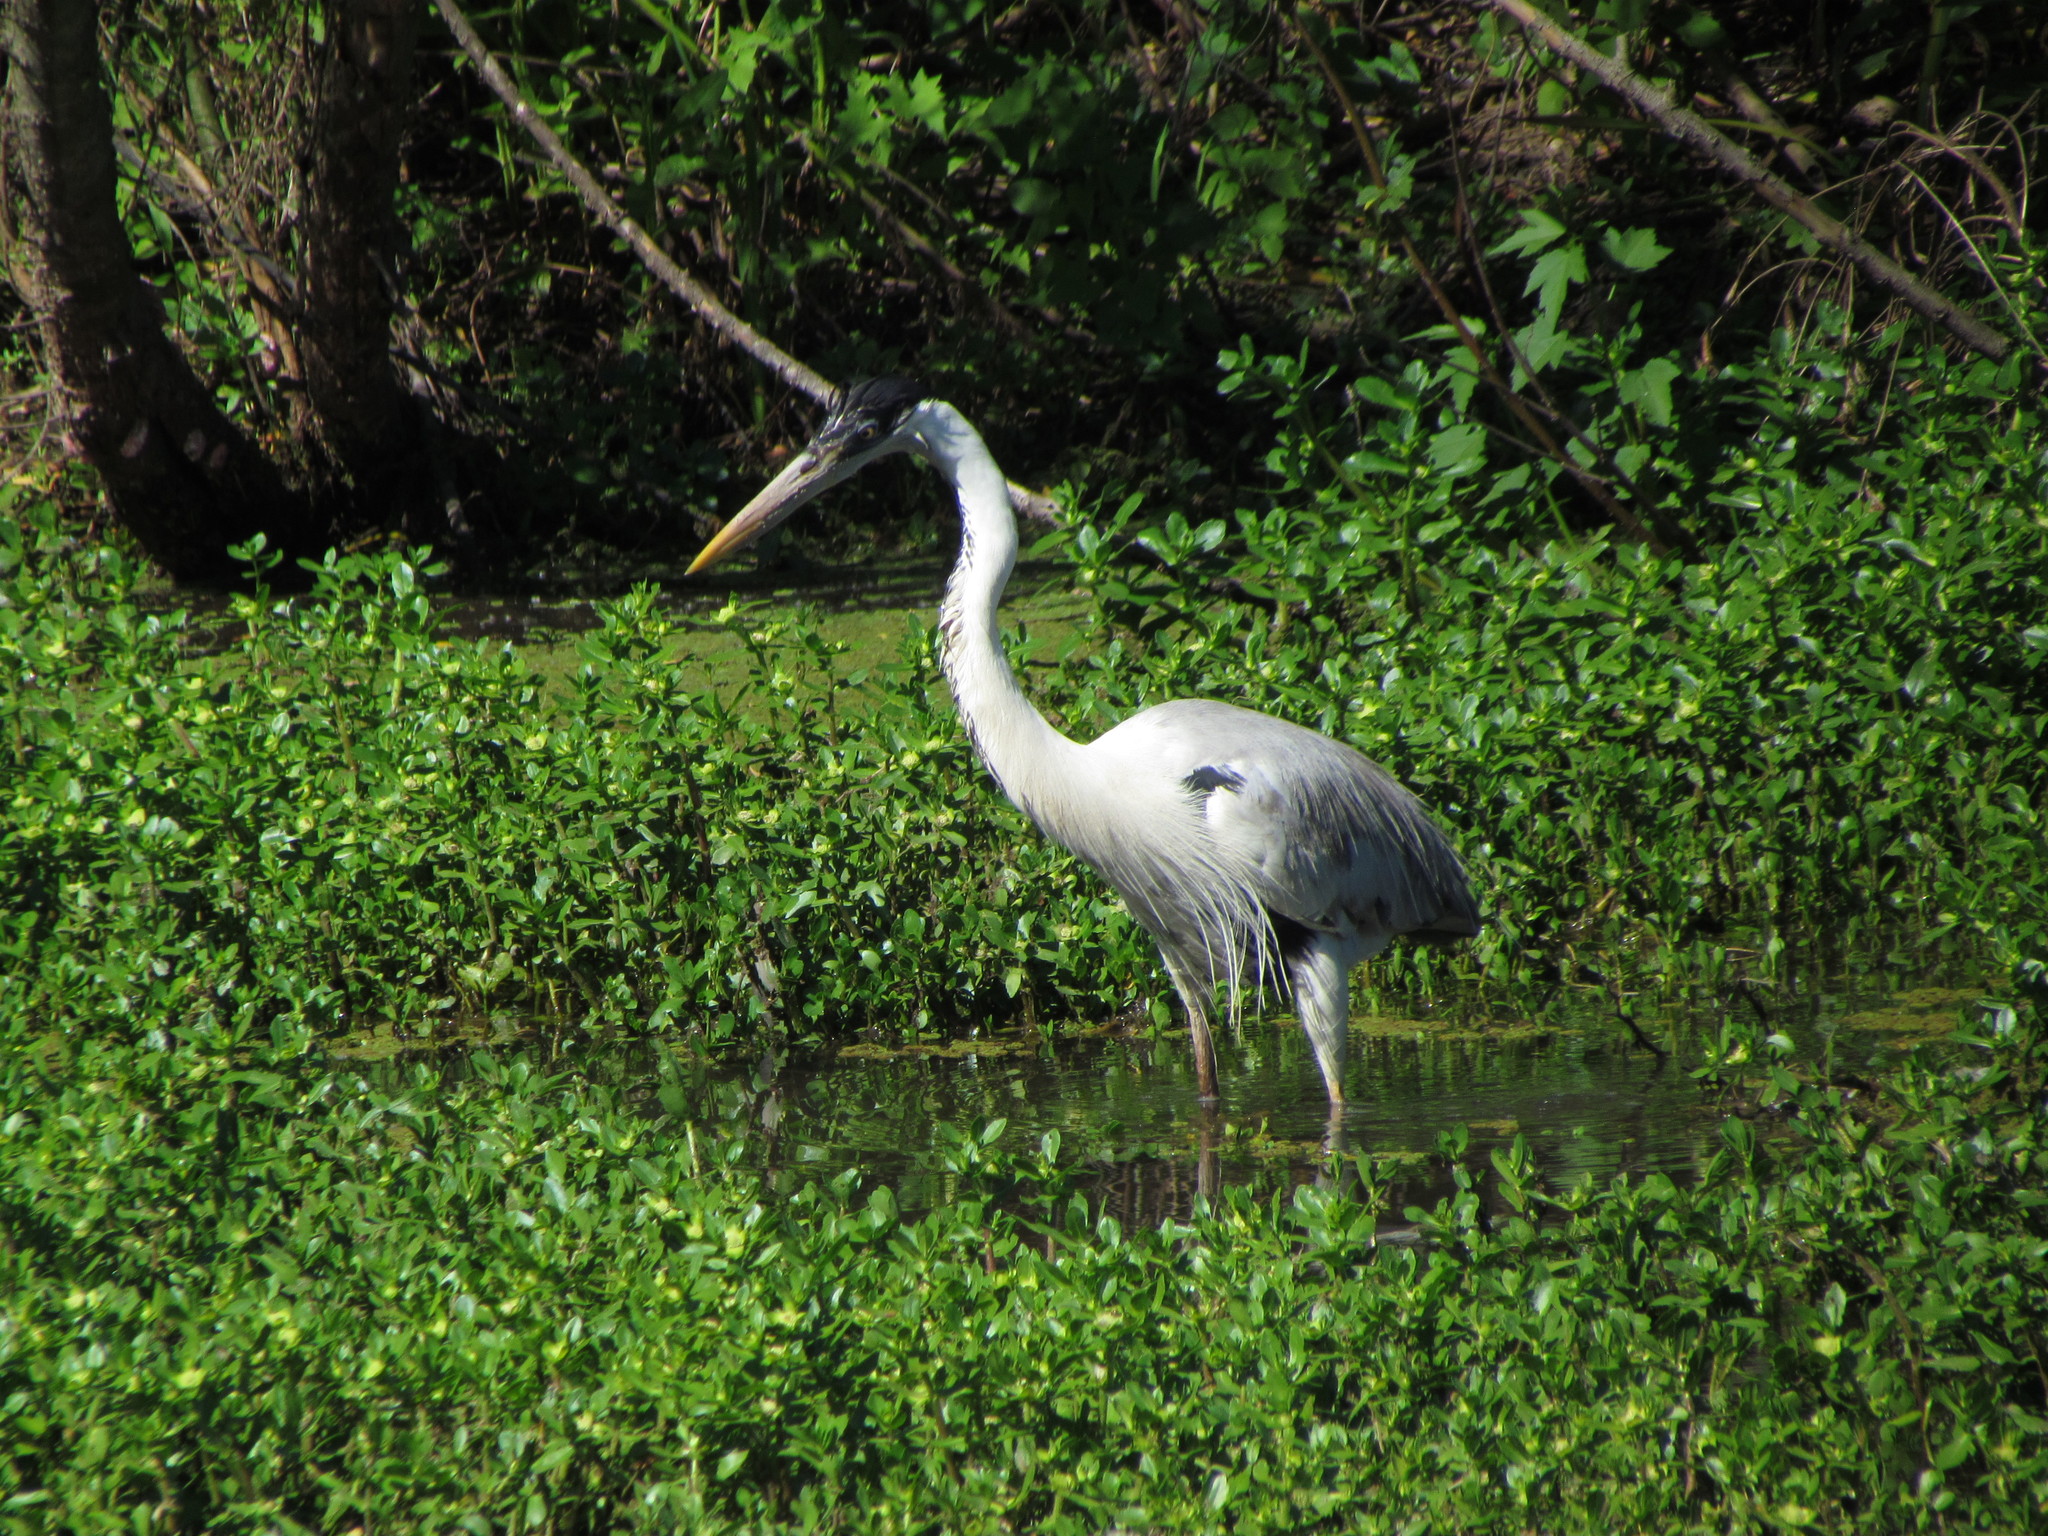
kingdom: Animalia
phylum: Chordata
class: Aves
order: Pelecaniformes
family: Ardeidae
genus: Ardea
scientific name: Ardea cocoi
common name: Cocoi heron
